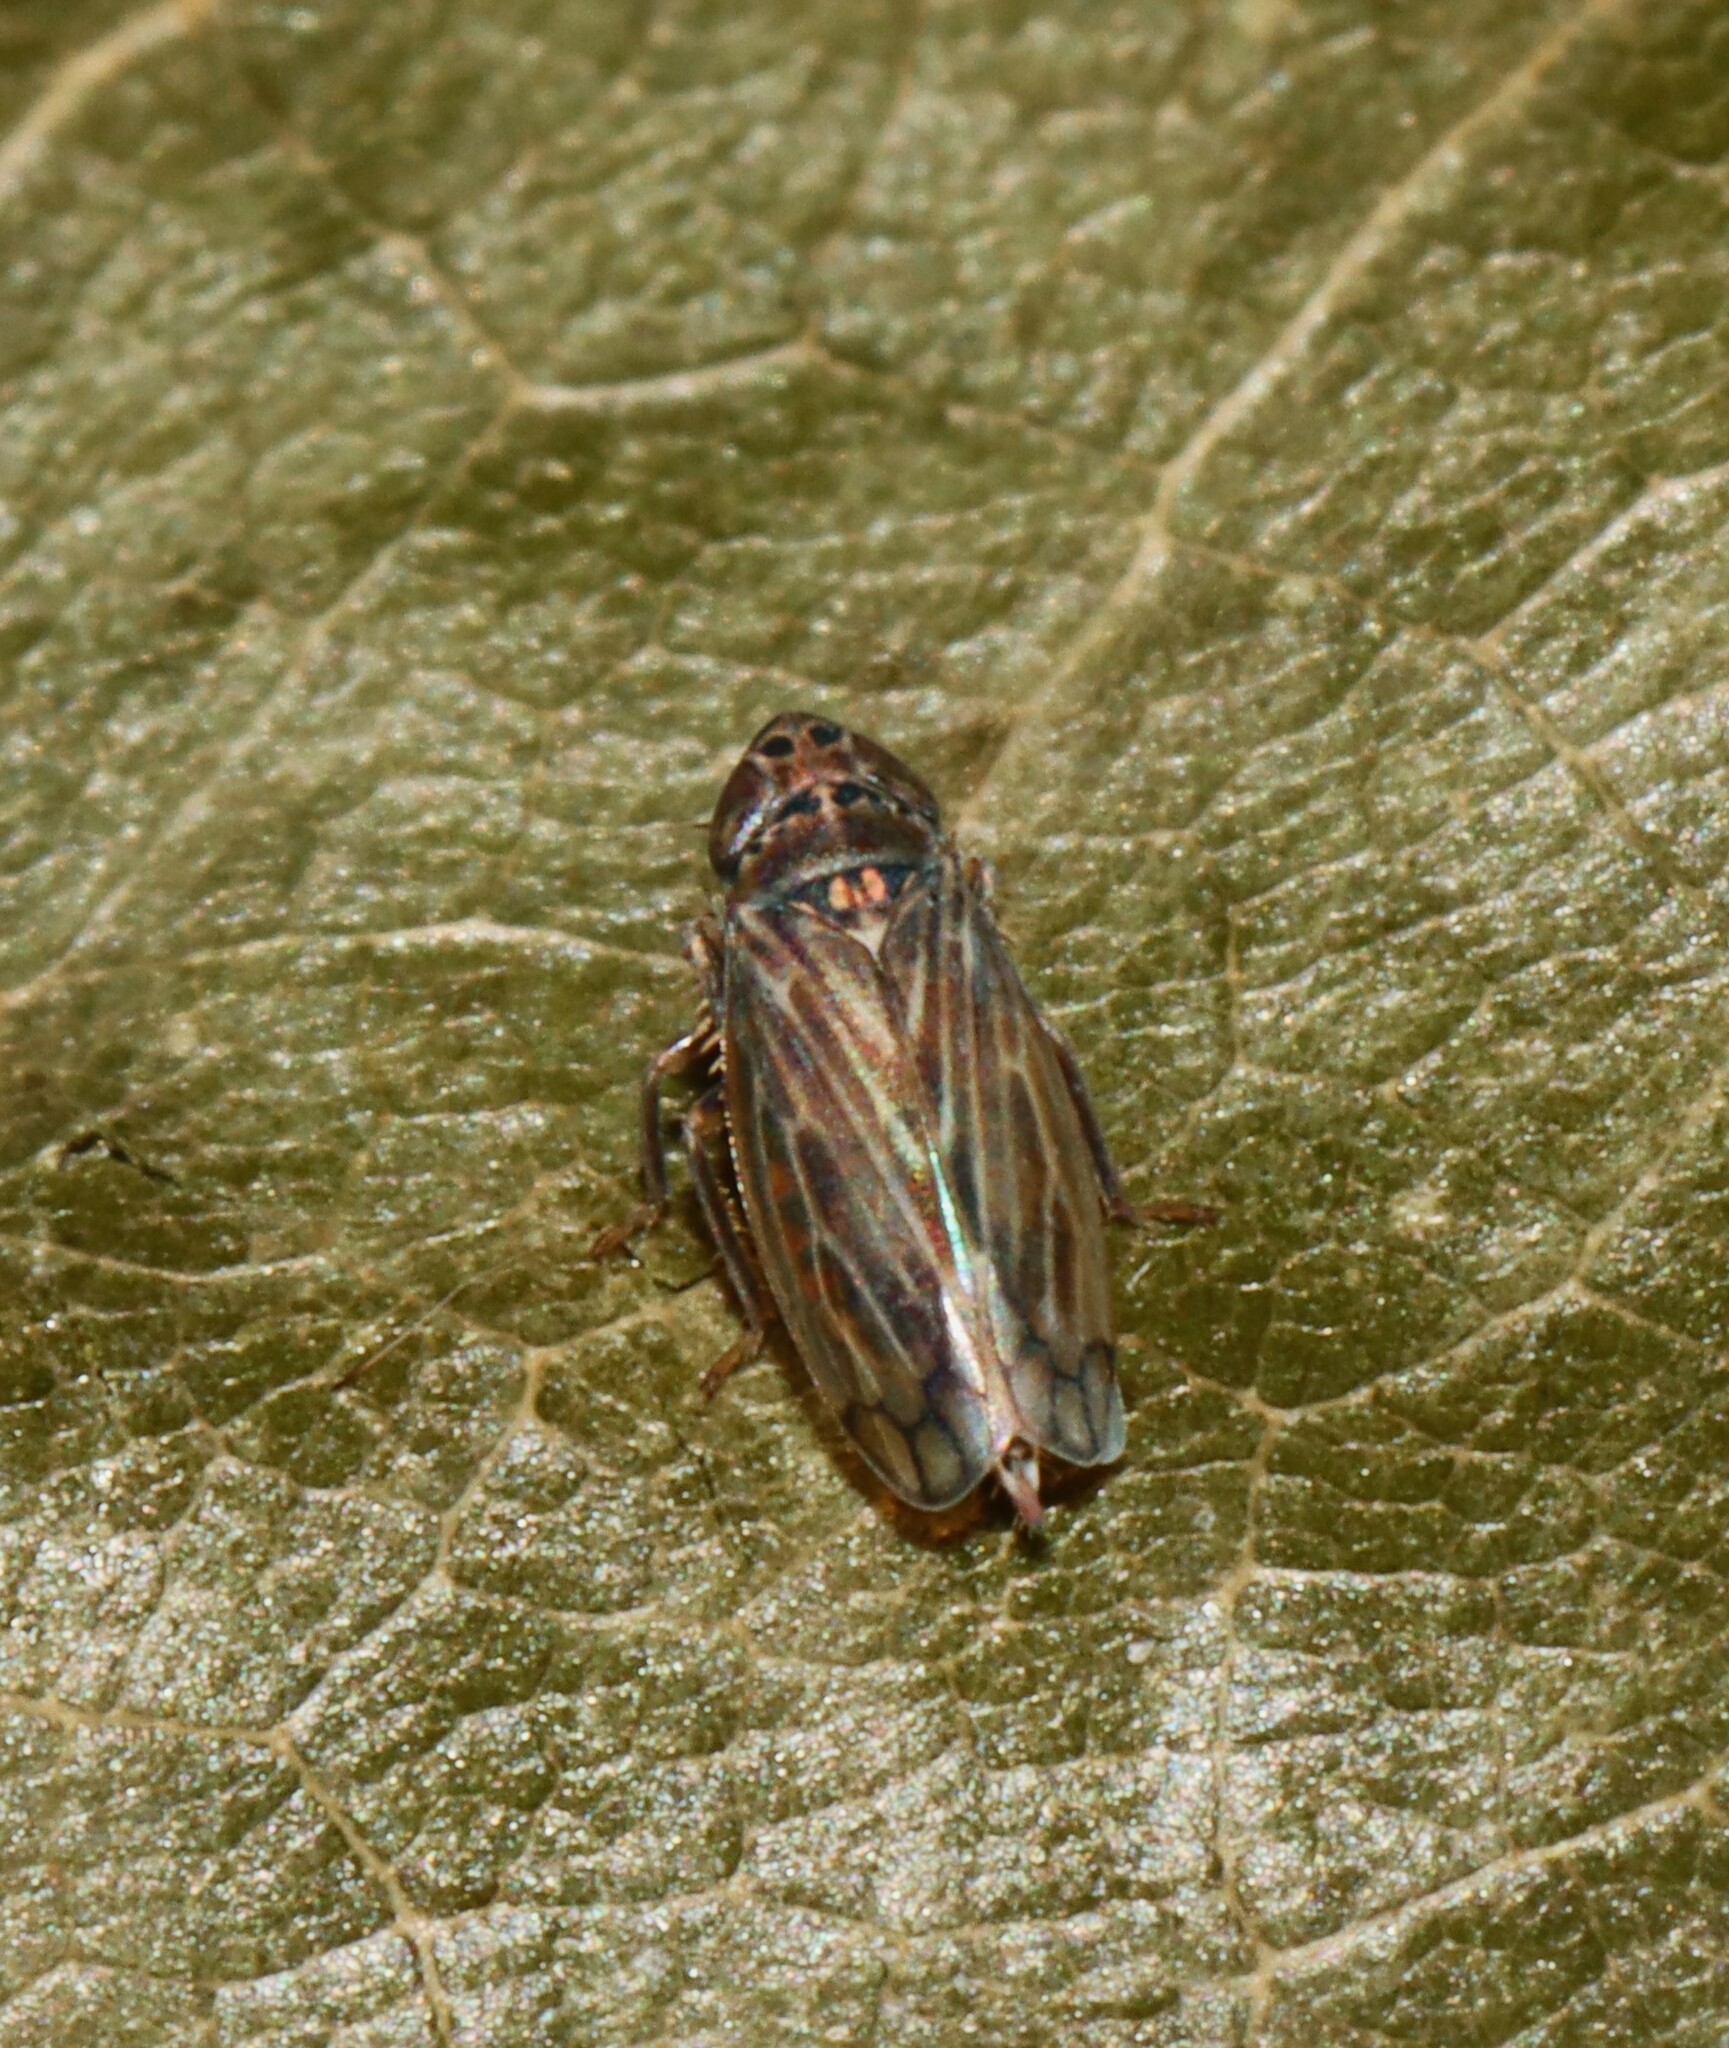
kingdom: Animalia
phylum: Arthropoda
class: Insecta
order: Hemiptera
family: Cicadellidae
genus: Stirellus
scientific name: Stirellus bicolor
